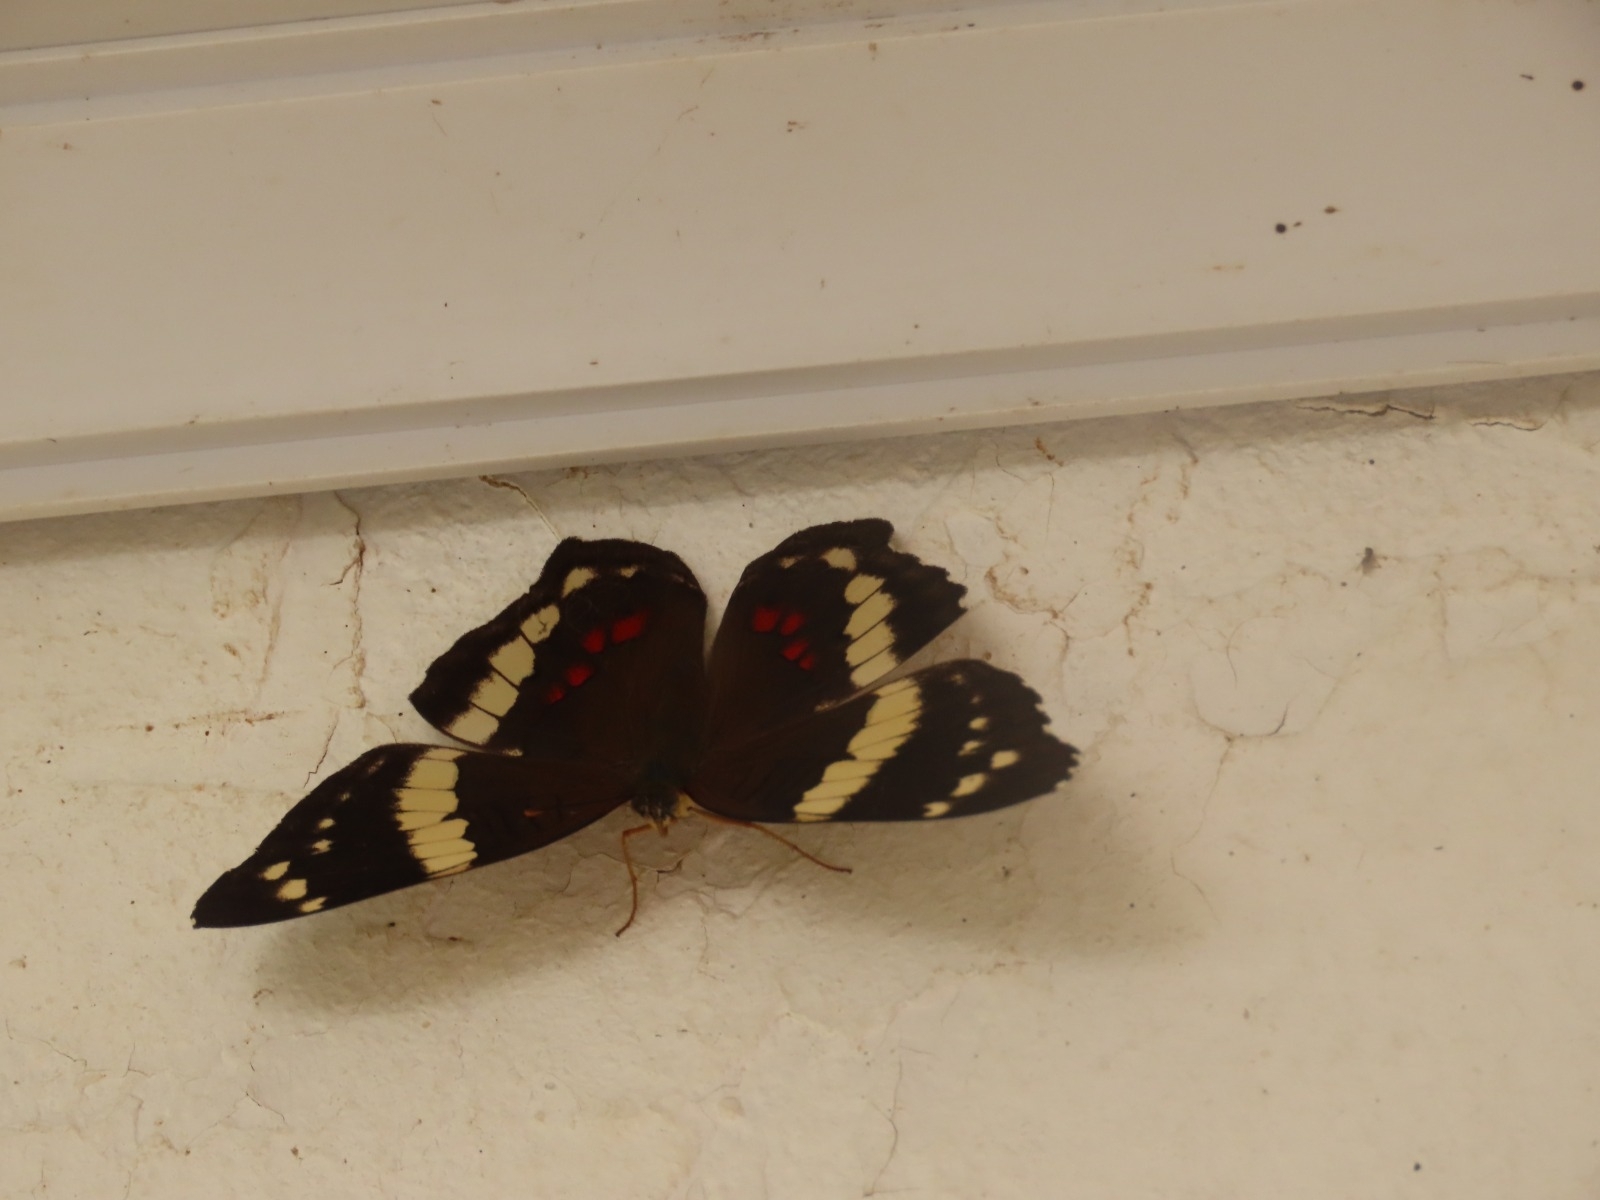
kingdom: Animalia
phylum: Arthropoda
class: Insecta
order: Lepidoptera
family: Nymphalidae
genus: Anartia
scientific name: Anartia fatima
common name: Banded peacock
